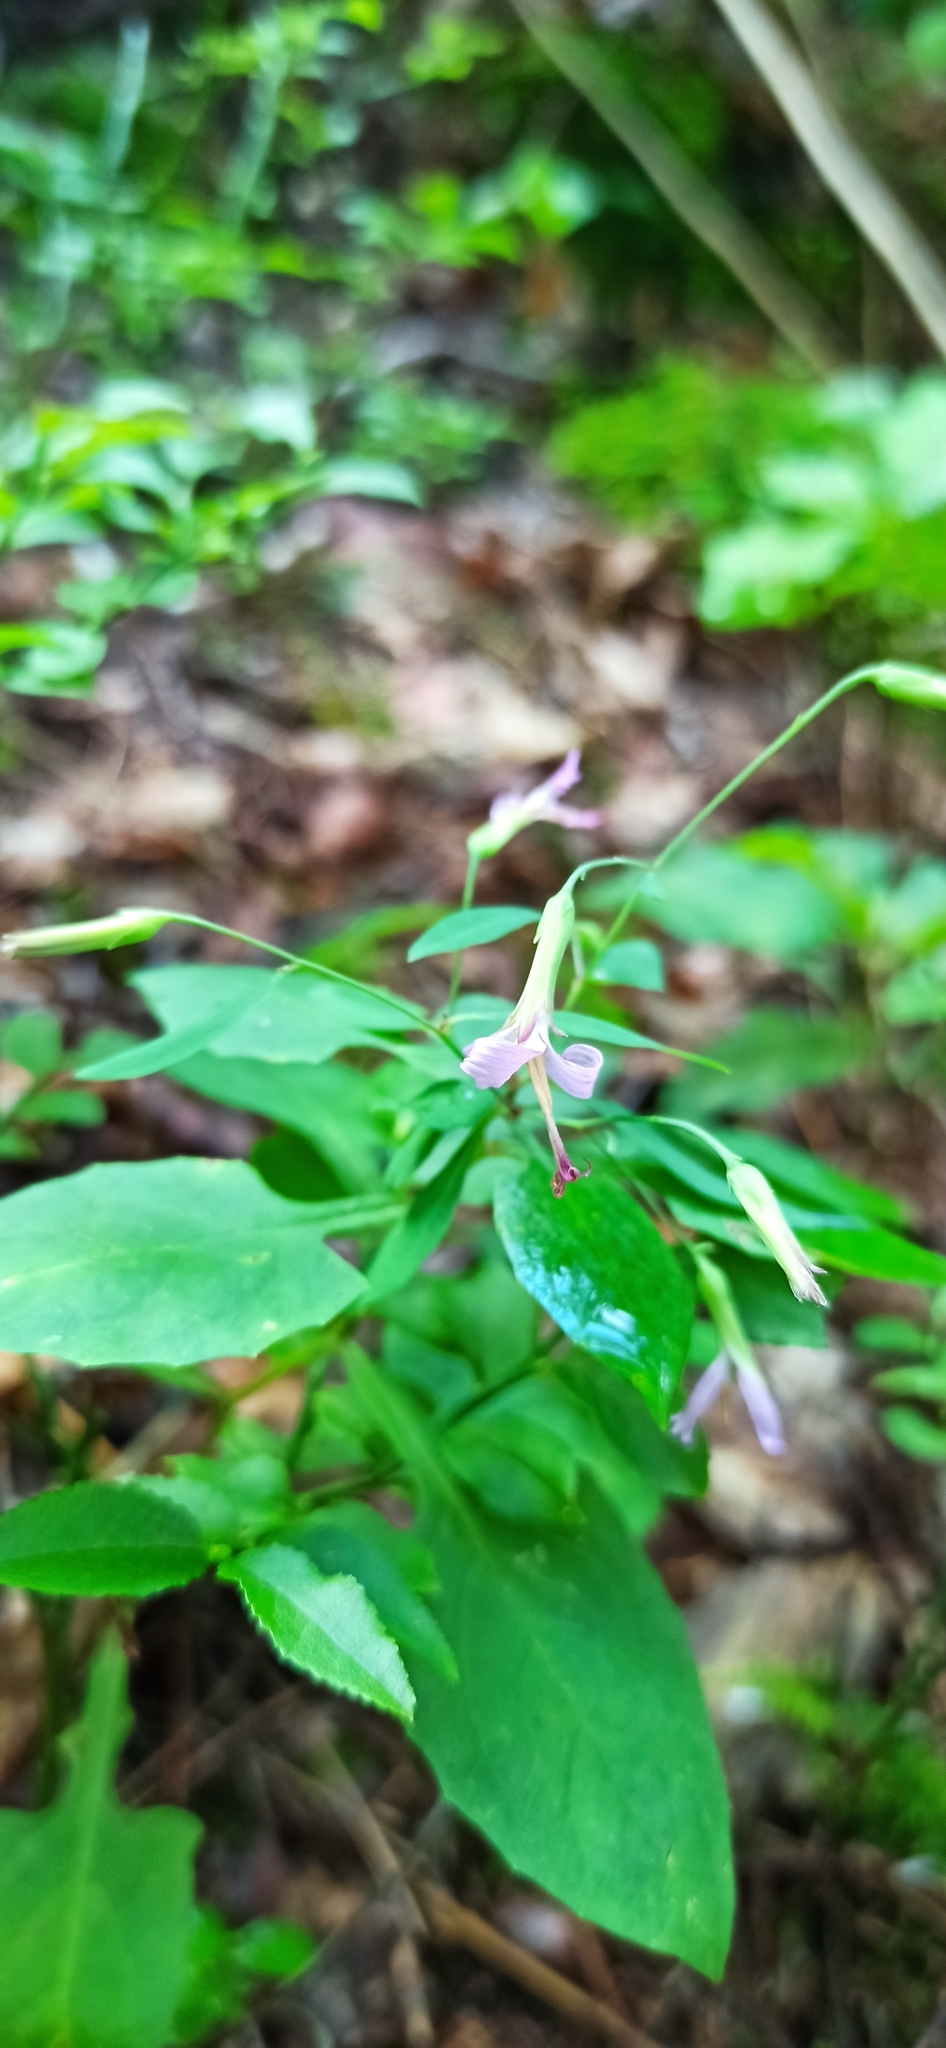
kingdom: Plantae
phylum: Tracheophyta
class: Magnoliopsida
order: Asterales
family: Asteraceae
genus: Prenanthes
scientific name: Prenanthes purpurea
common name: Purple lettuce
